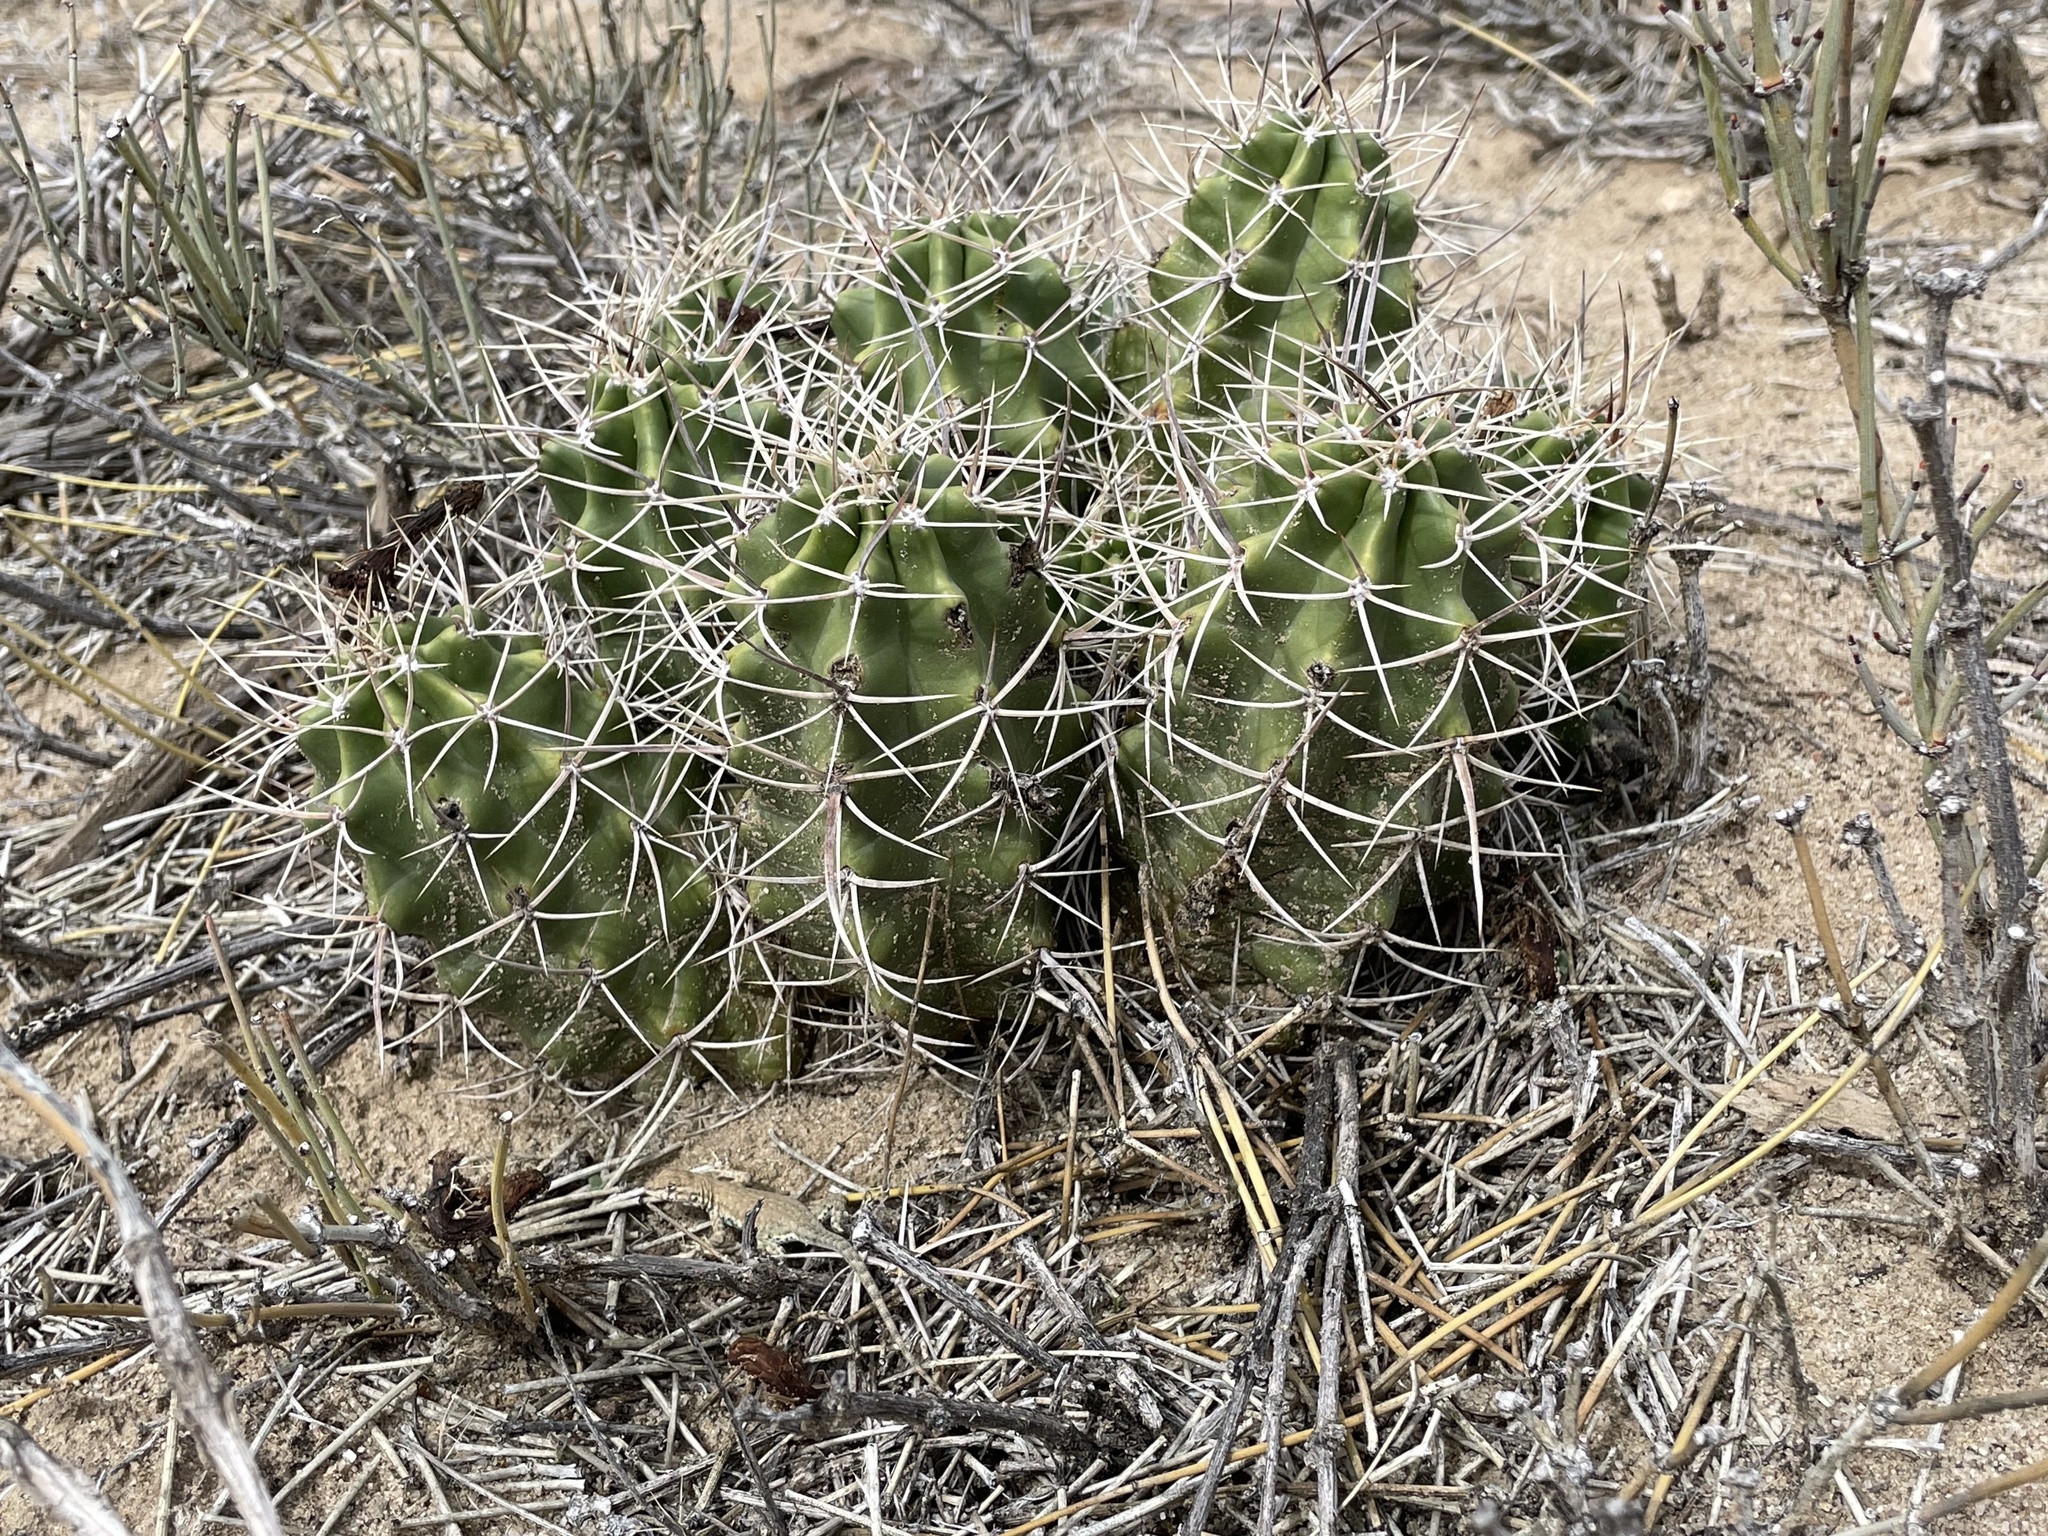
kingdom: Plantae
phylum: Tracheophyta
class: Magnoliopsida
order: Caryophyllales
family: Cactaceae
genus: Echinocereus
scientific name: Echinocereus triglochidiatus
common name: Claretcup hedgehog
